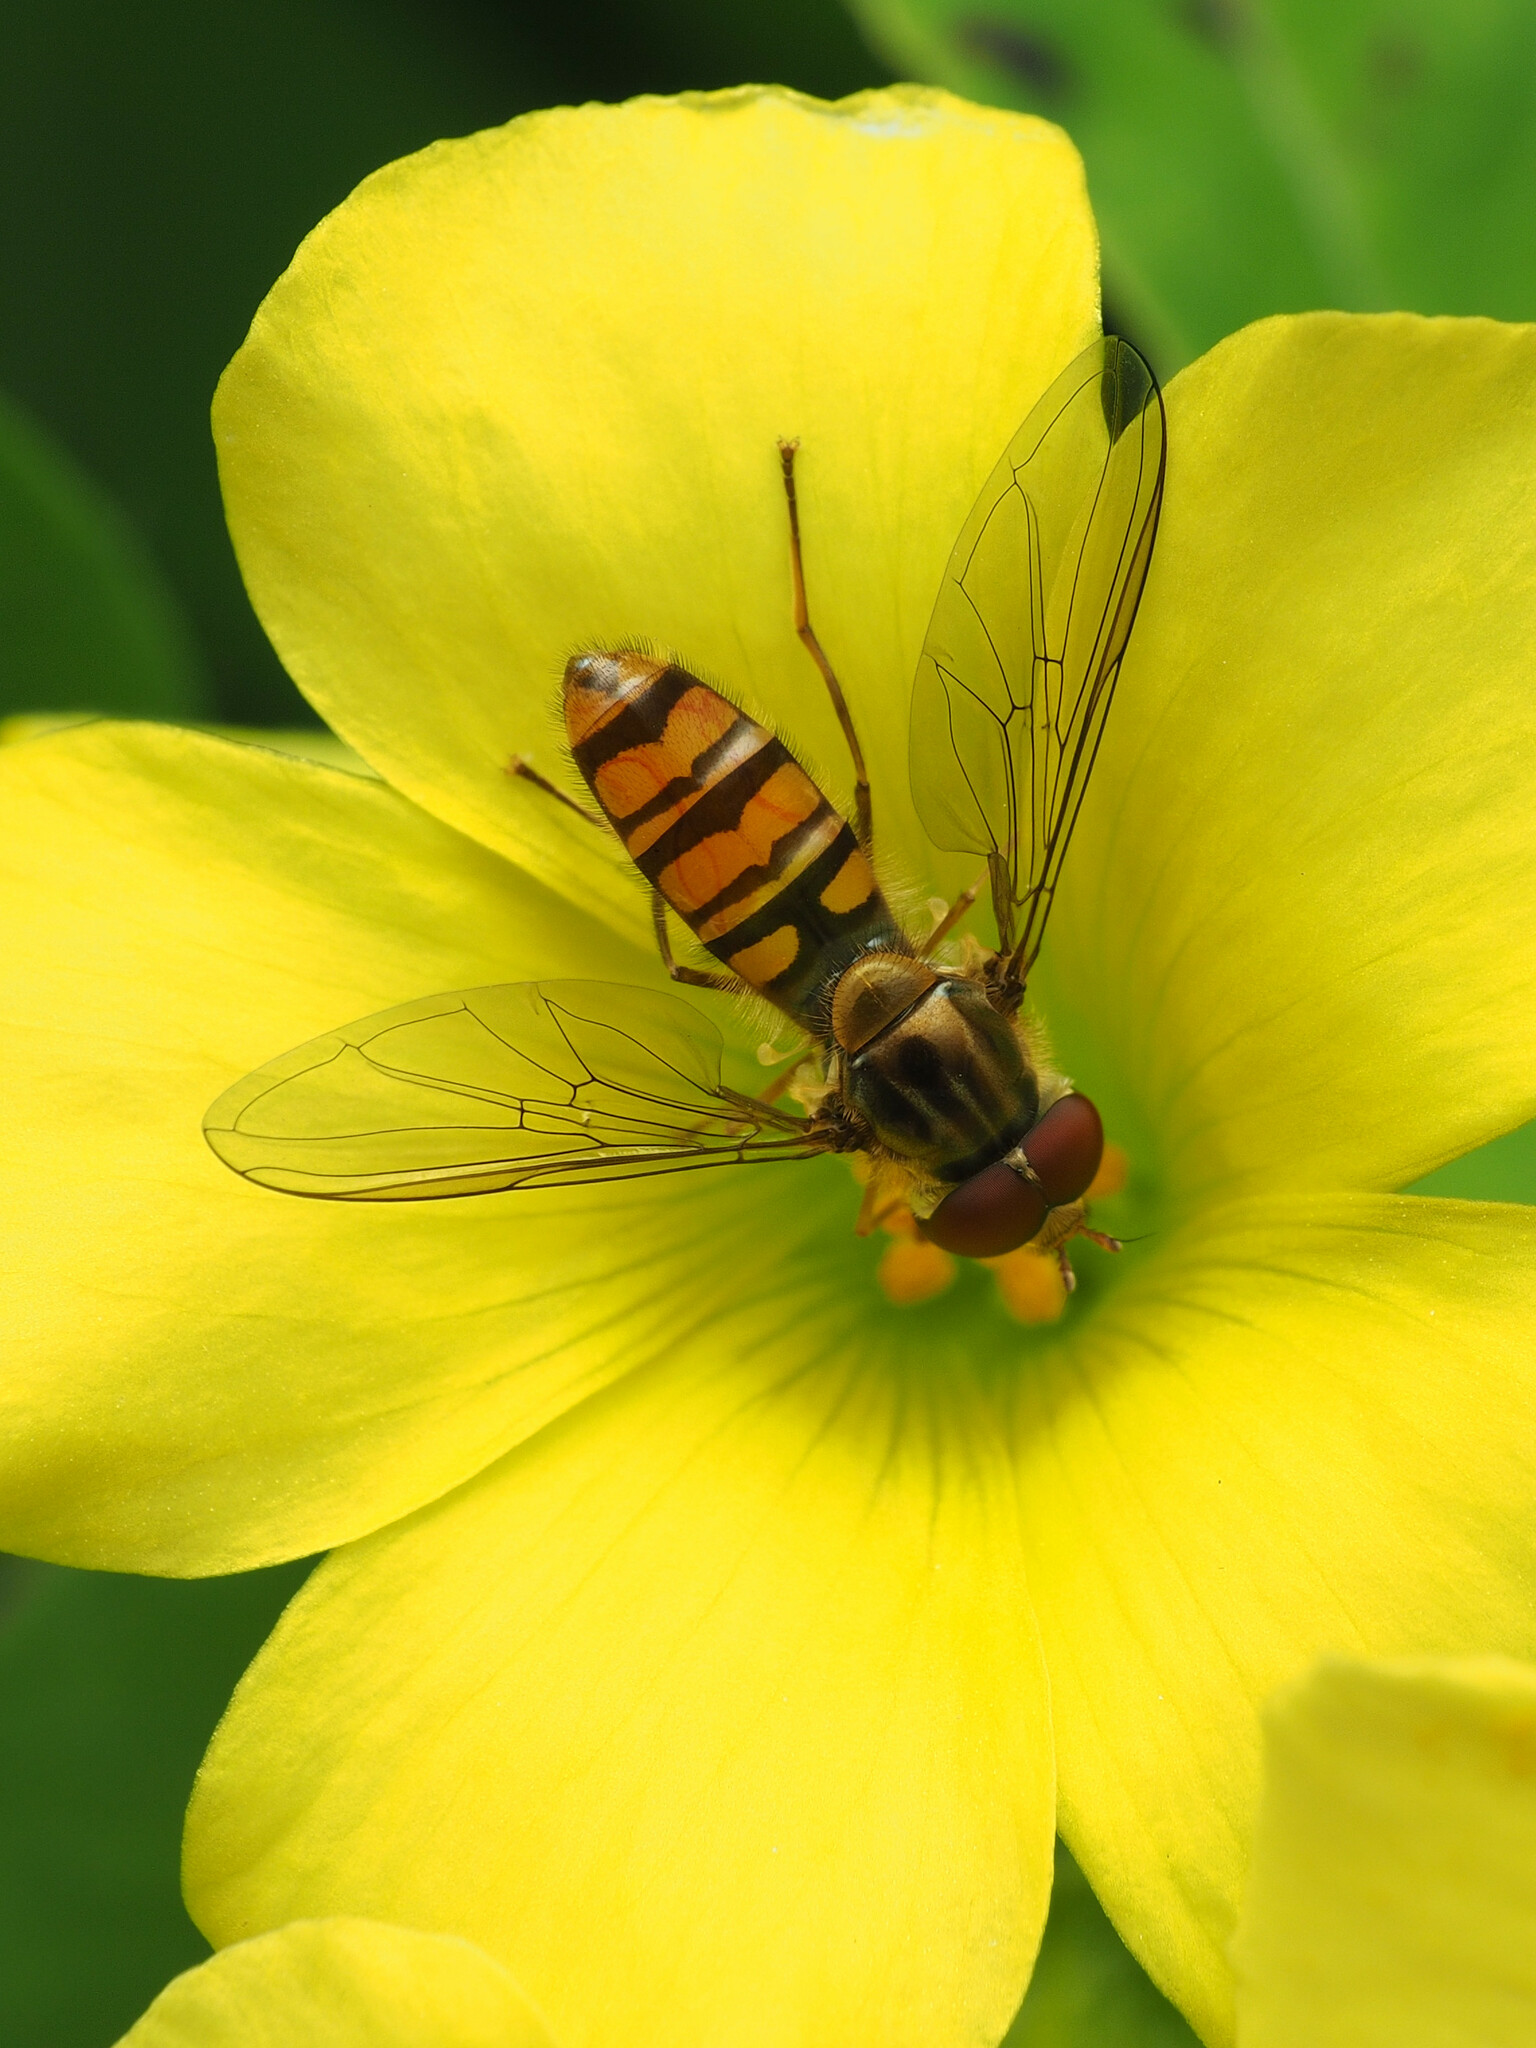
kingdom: Animalia
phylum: Arthropoda
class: Insecta
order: Diptera
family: Syrphidae
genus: Episyrphus
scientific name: Episyrphus balteatus
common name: Marmalade hoverfly
